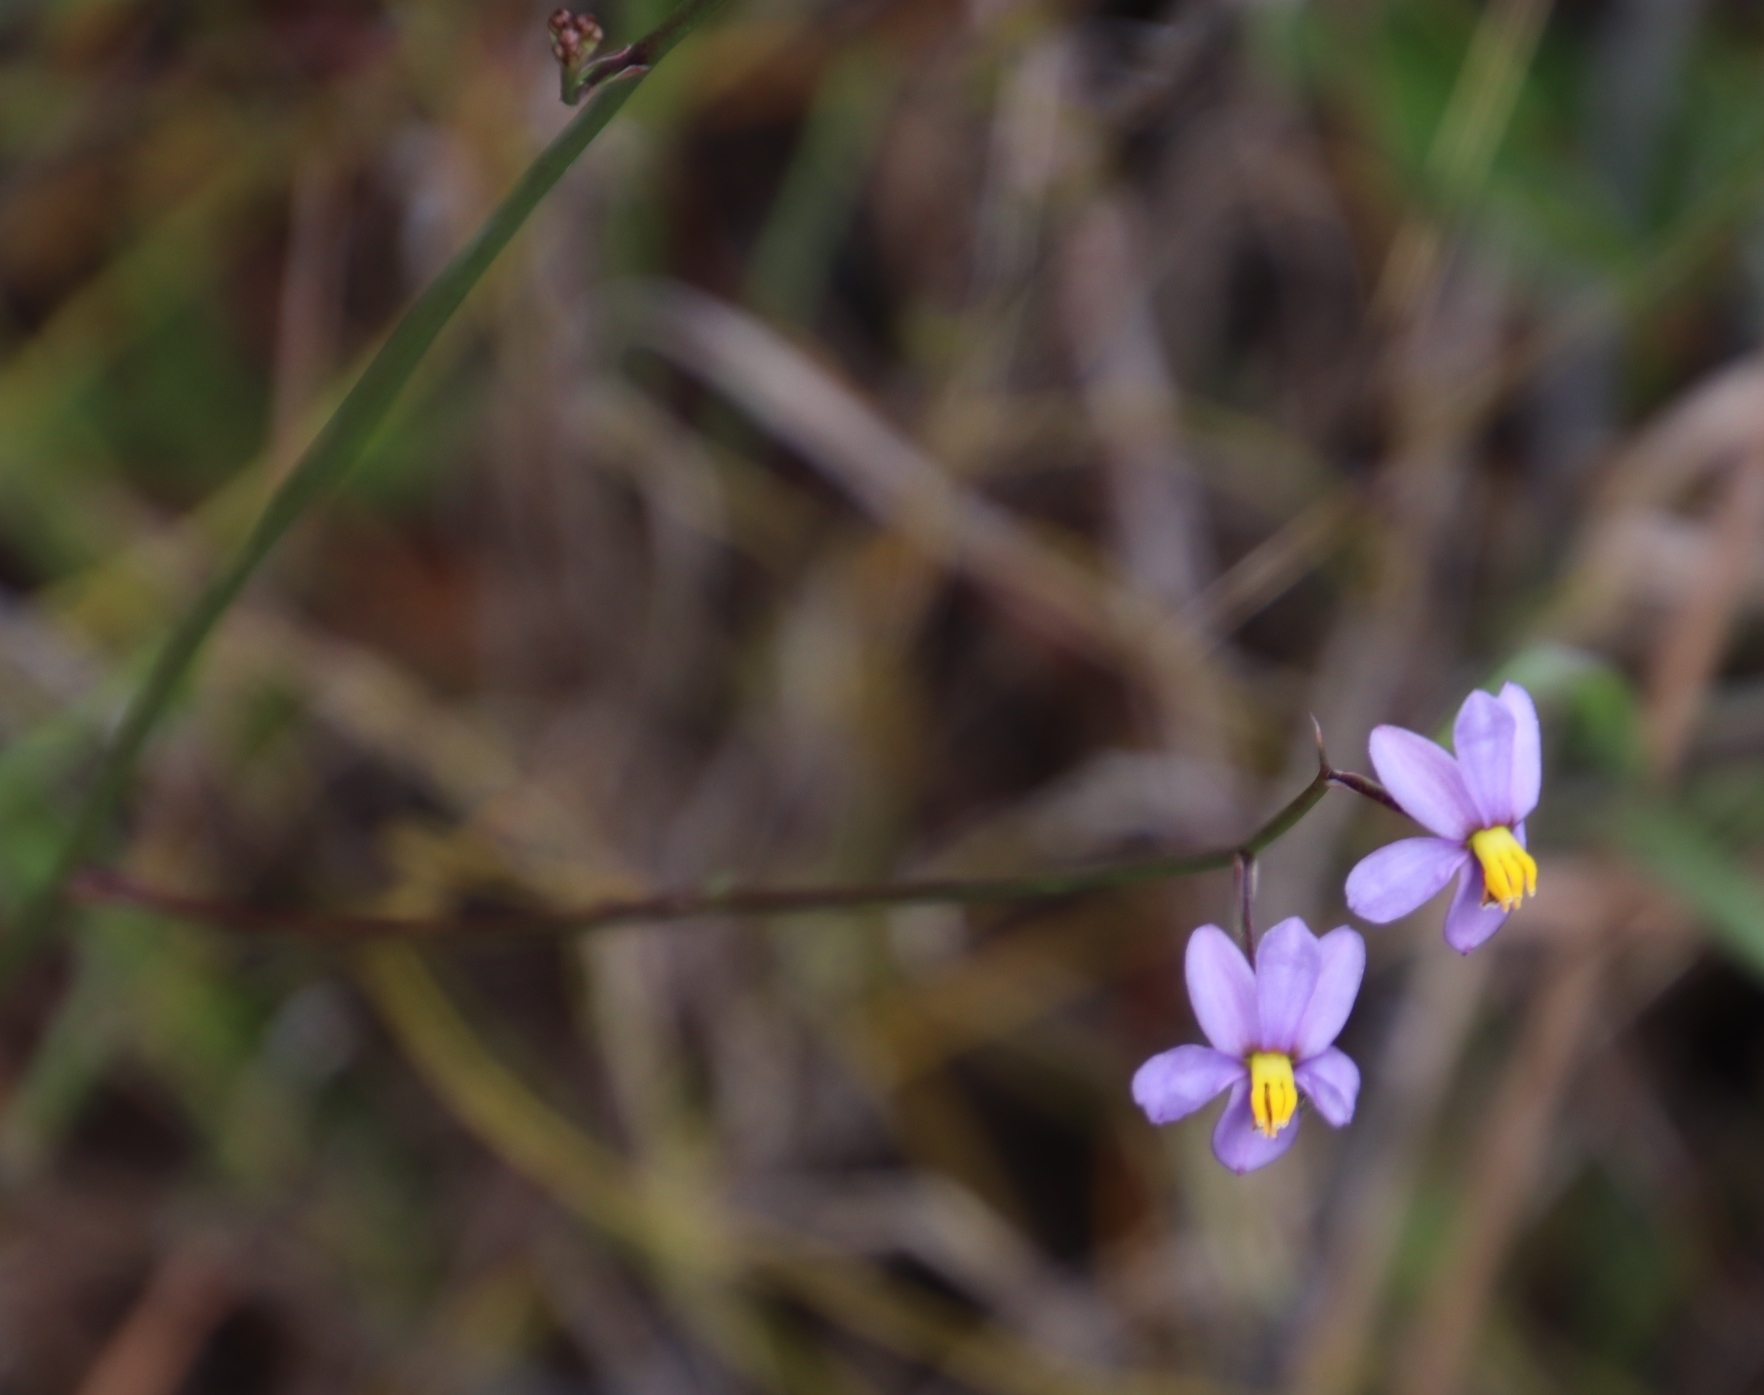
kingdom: Plantae
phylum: Tracheophyta
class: Liliopsida
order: Asparagales
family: Tecophilaeaceae
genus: Cyanella
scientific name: Cyanella hyacinthoides
